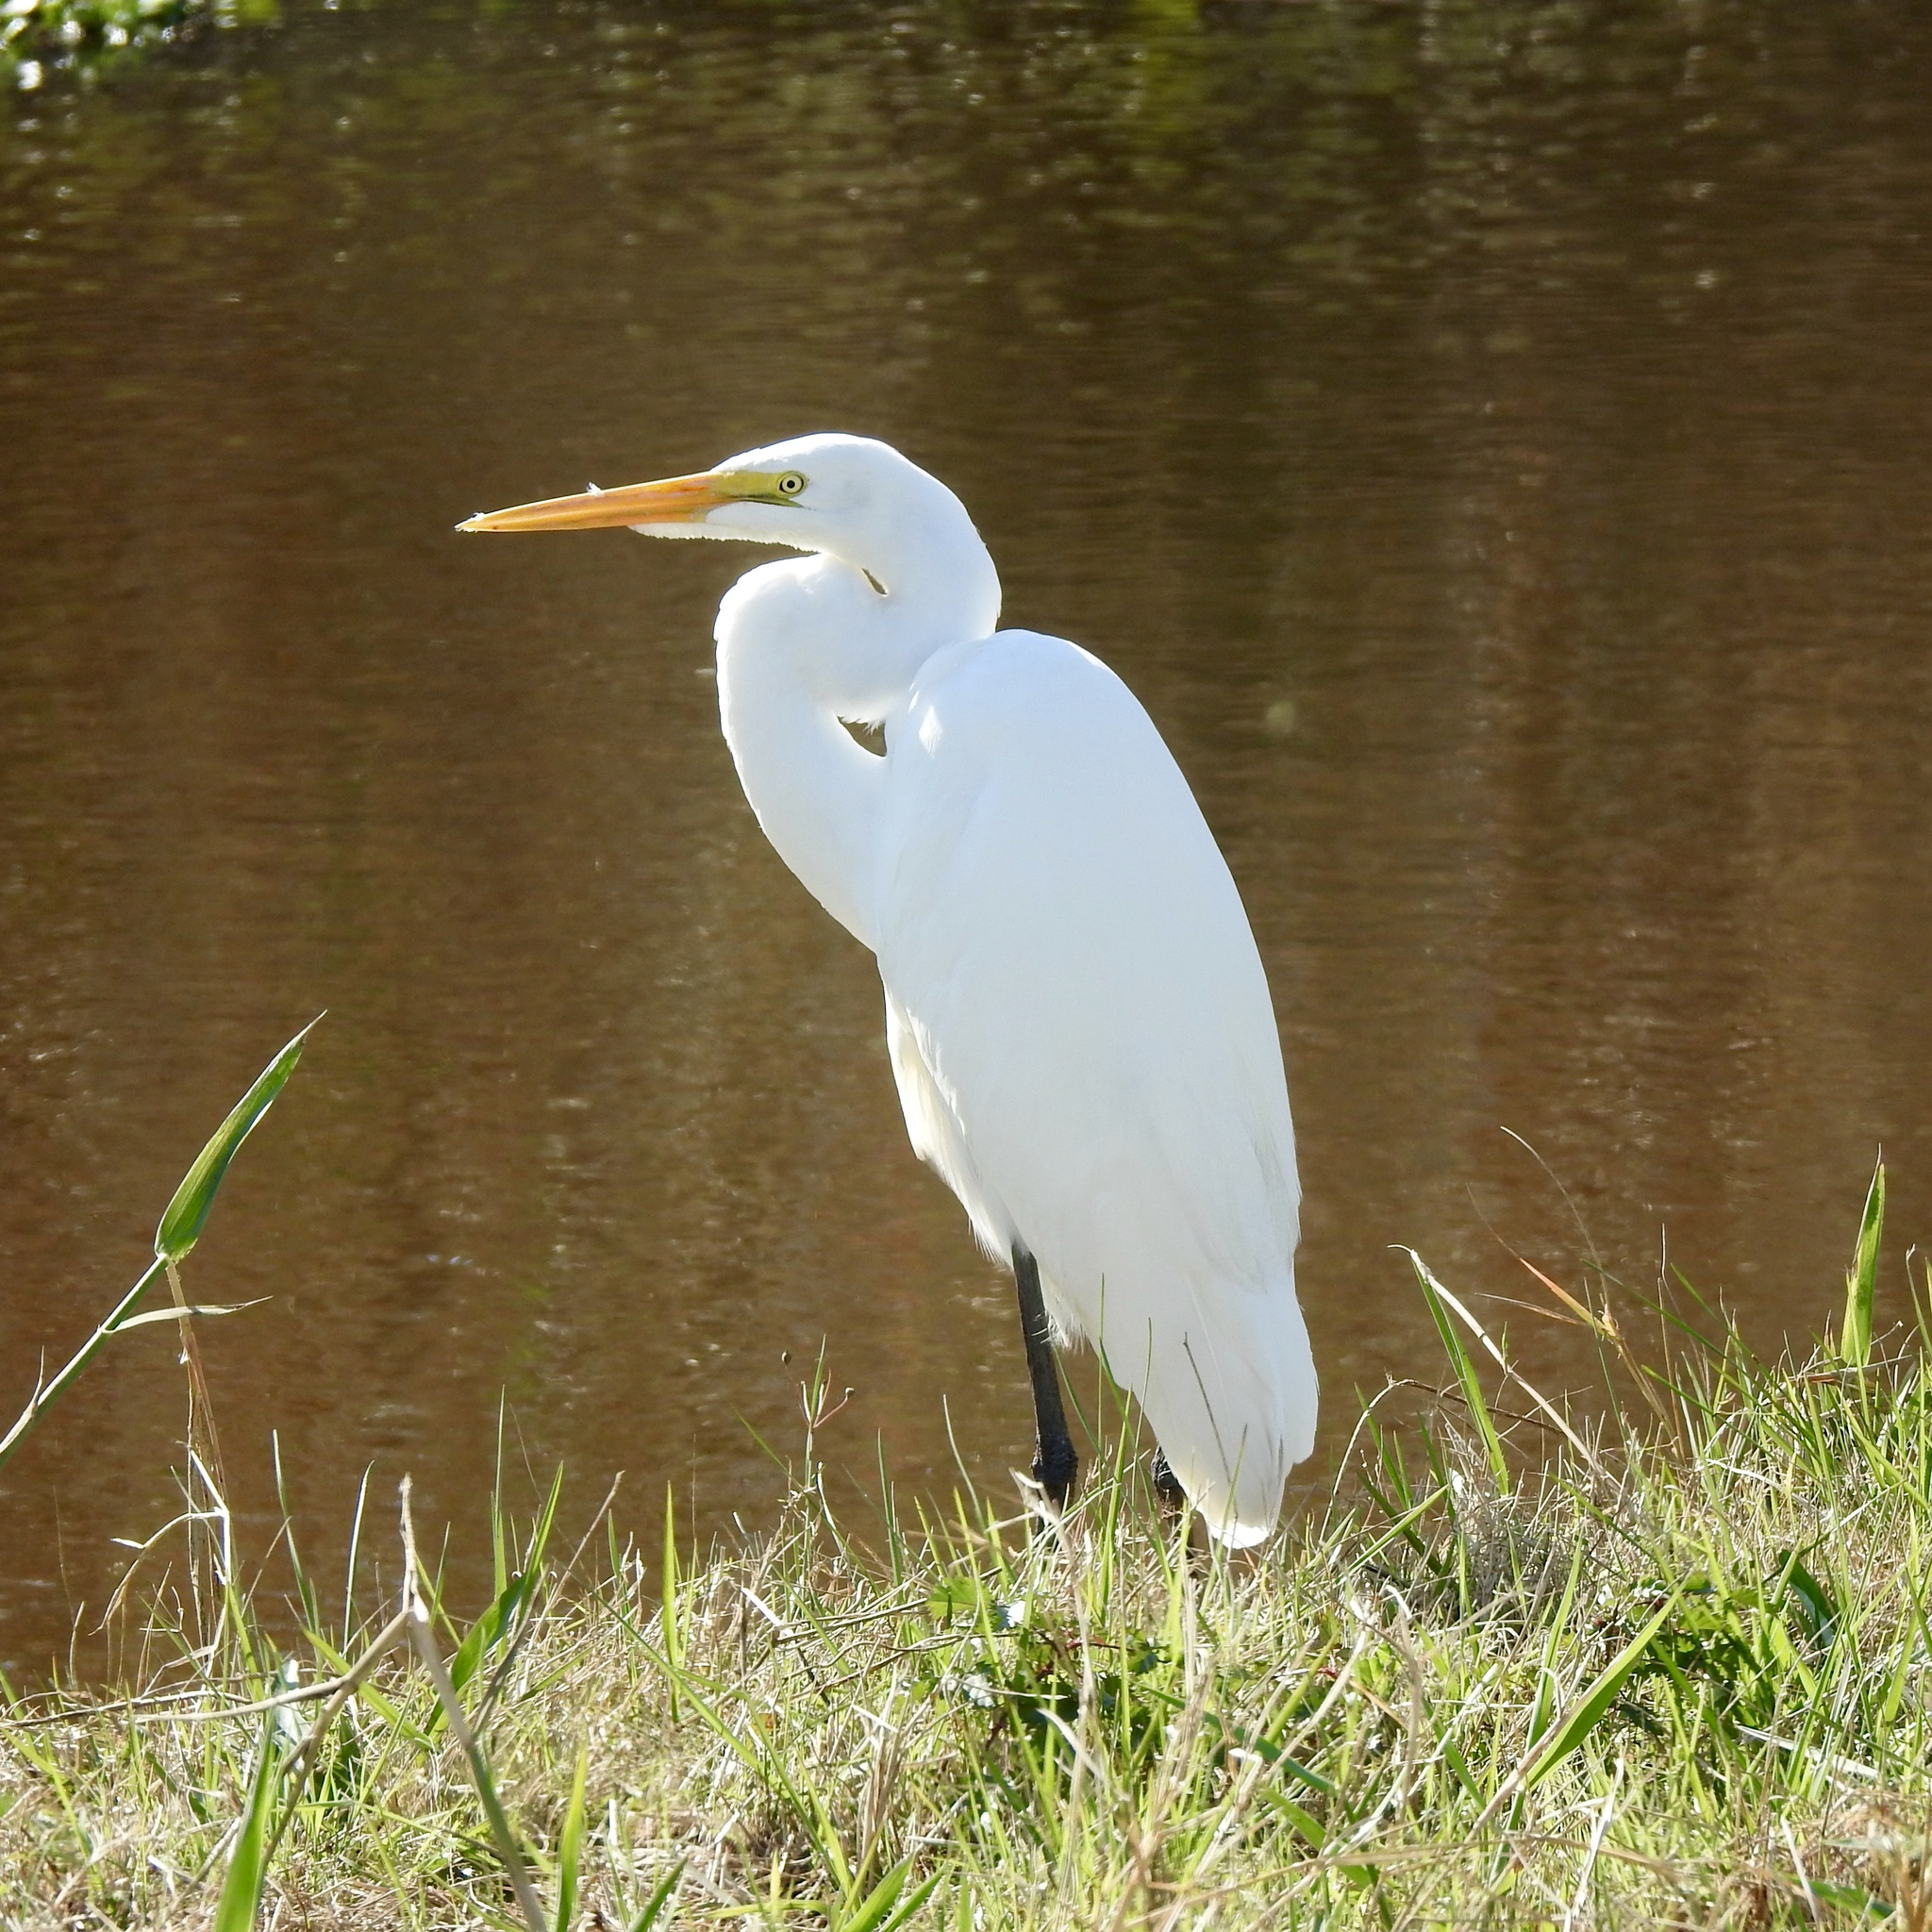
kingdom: Animalia
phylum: Chordata
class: Aves
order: Pelecaniformes
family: Ardeidae
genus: Ardea
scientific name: Ardea alba
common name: Great egret
